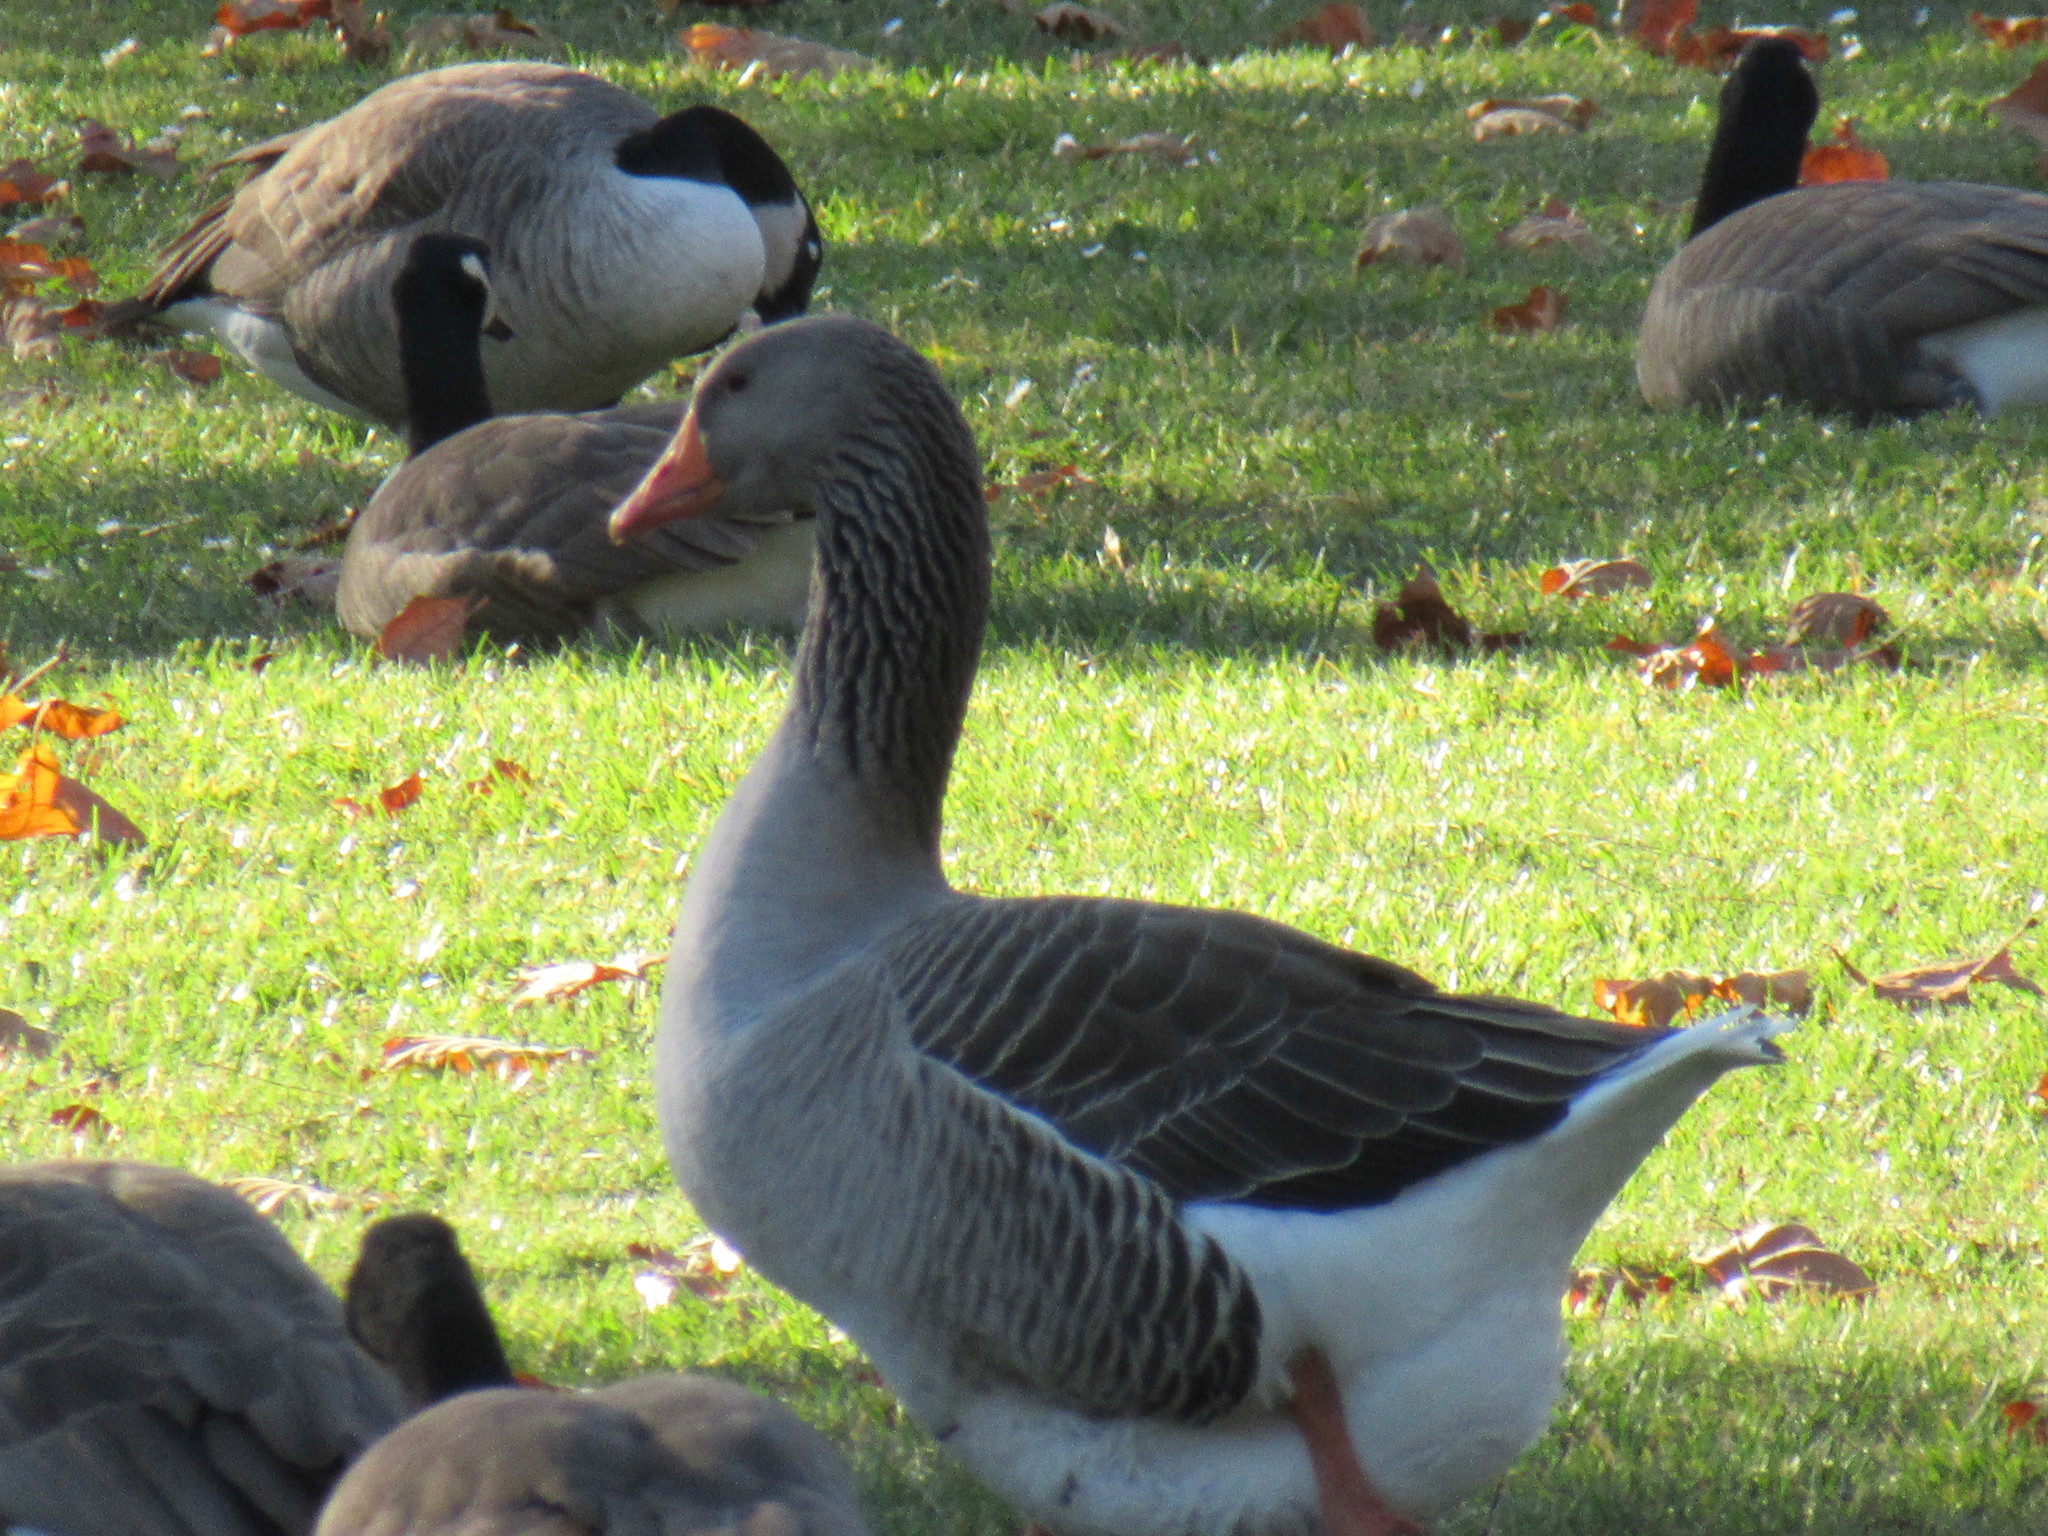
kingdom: Animalia
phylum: Chordata
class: Aves
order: Anseriformes
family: Anatidae
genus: Anser
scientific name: Anser anser
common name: Greylag goose
